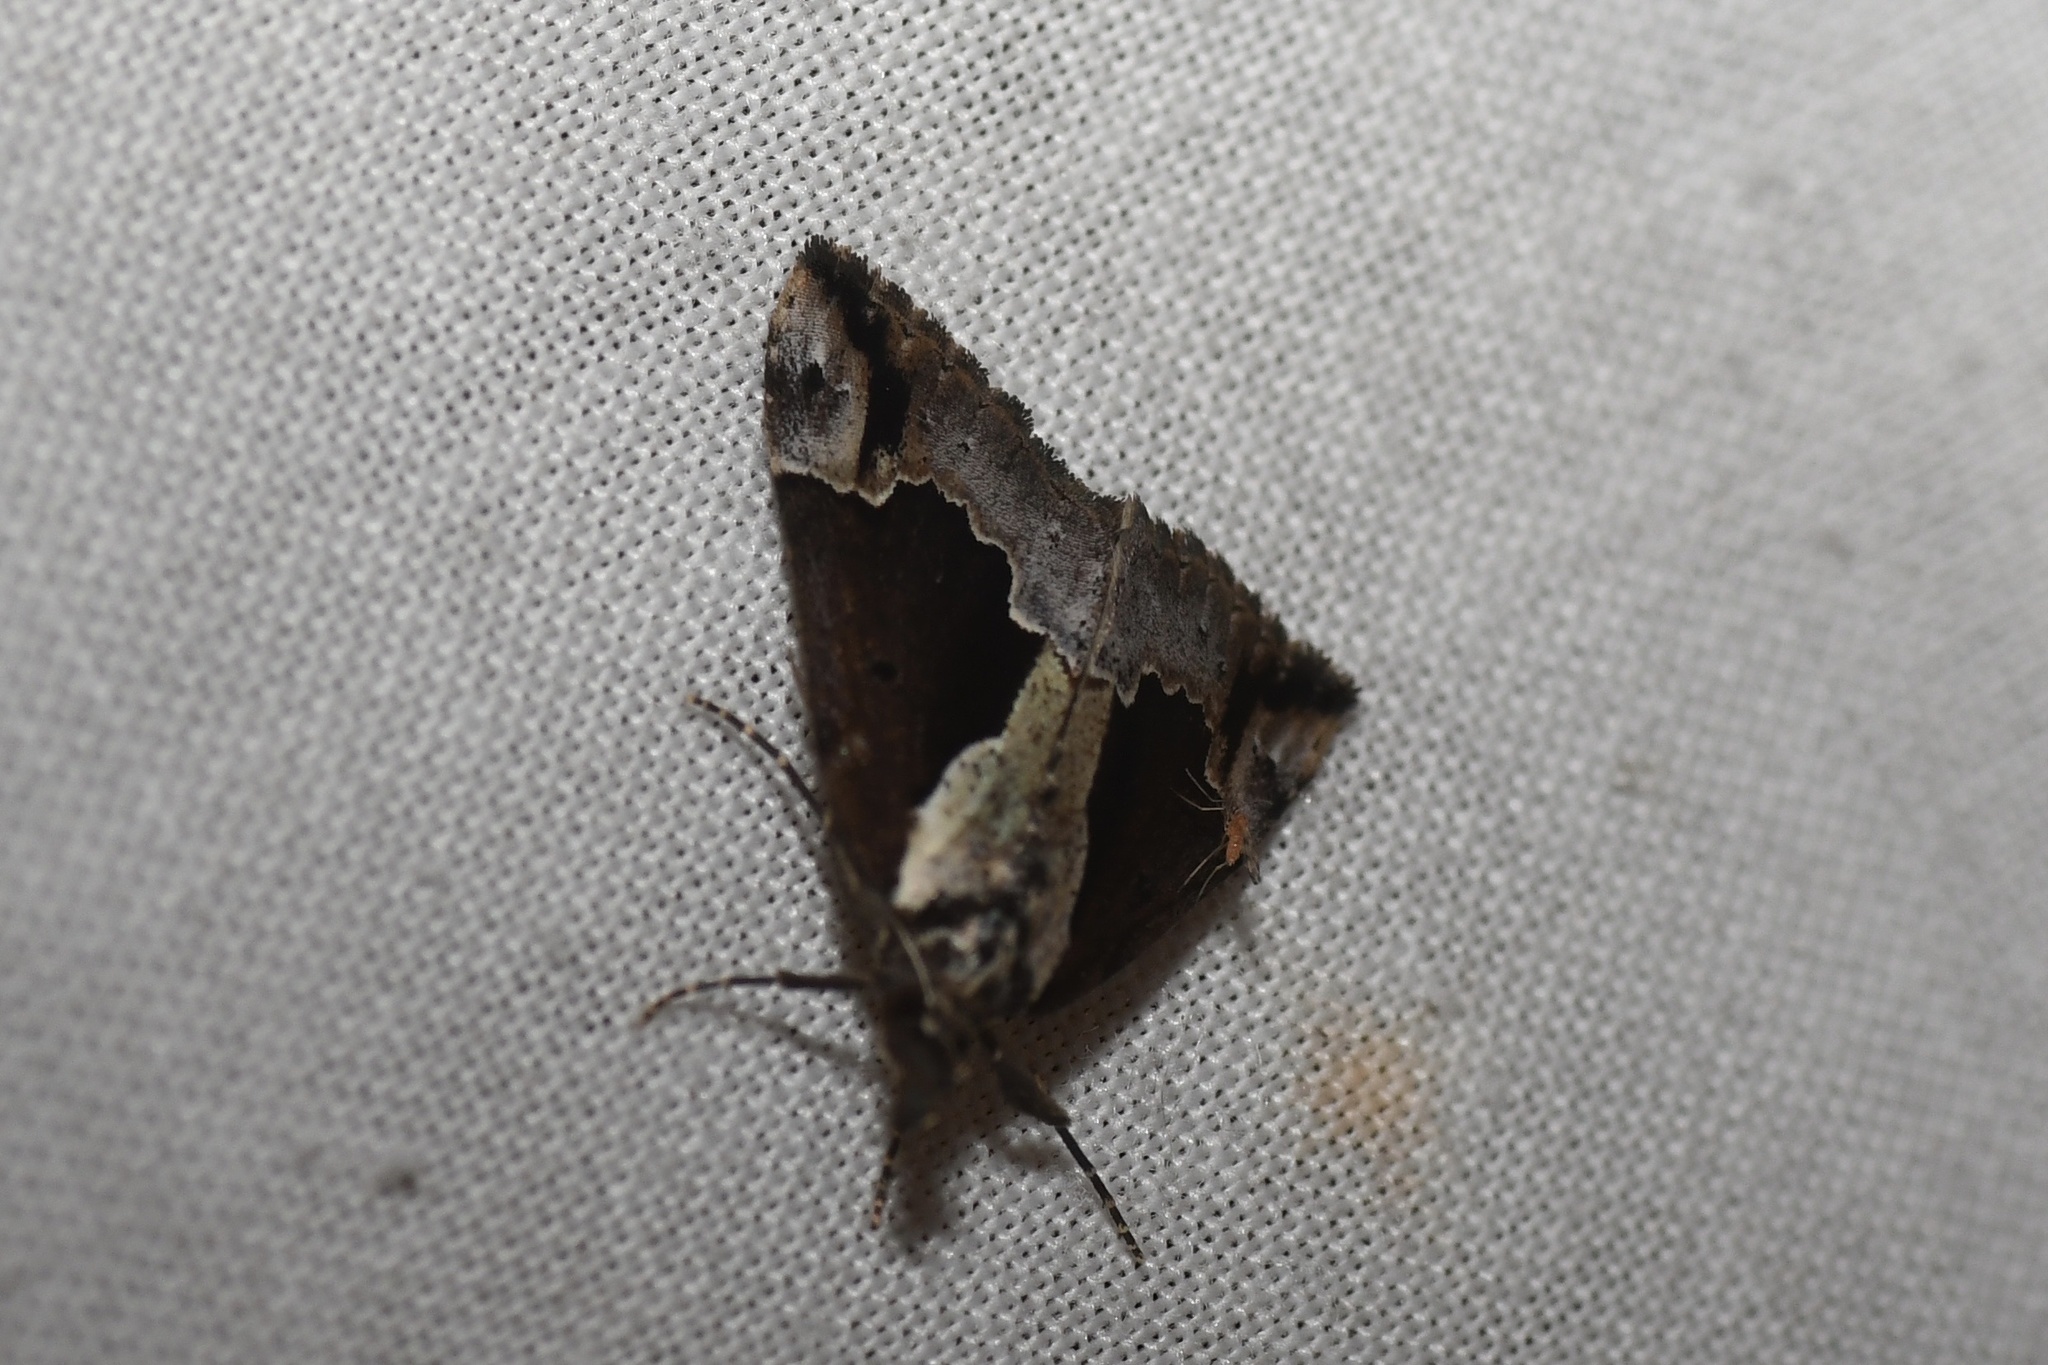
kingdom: Animalia
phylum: Arthropoda
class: Insecta
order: Lepidoptera
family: Erebidae
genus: Hypena
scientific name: Hypena baltimoralis
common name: Baltimore snout
